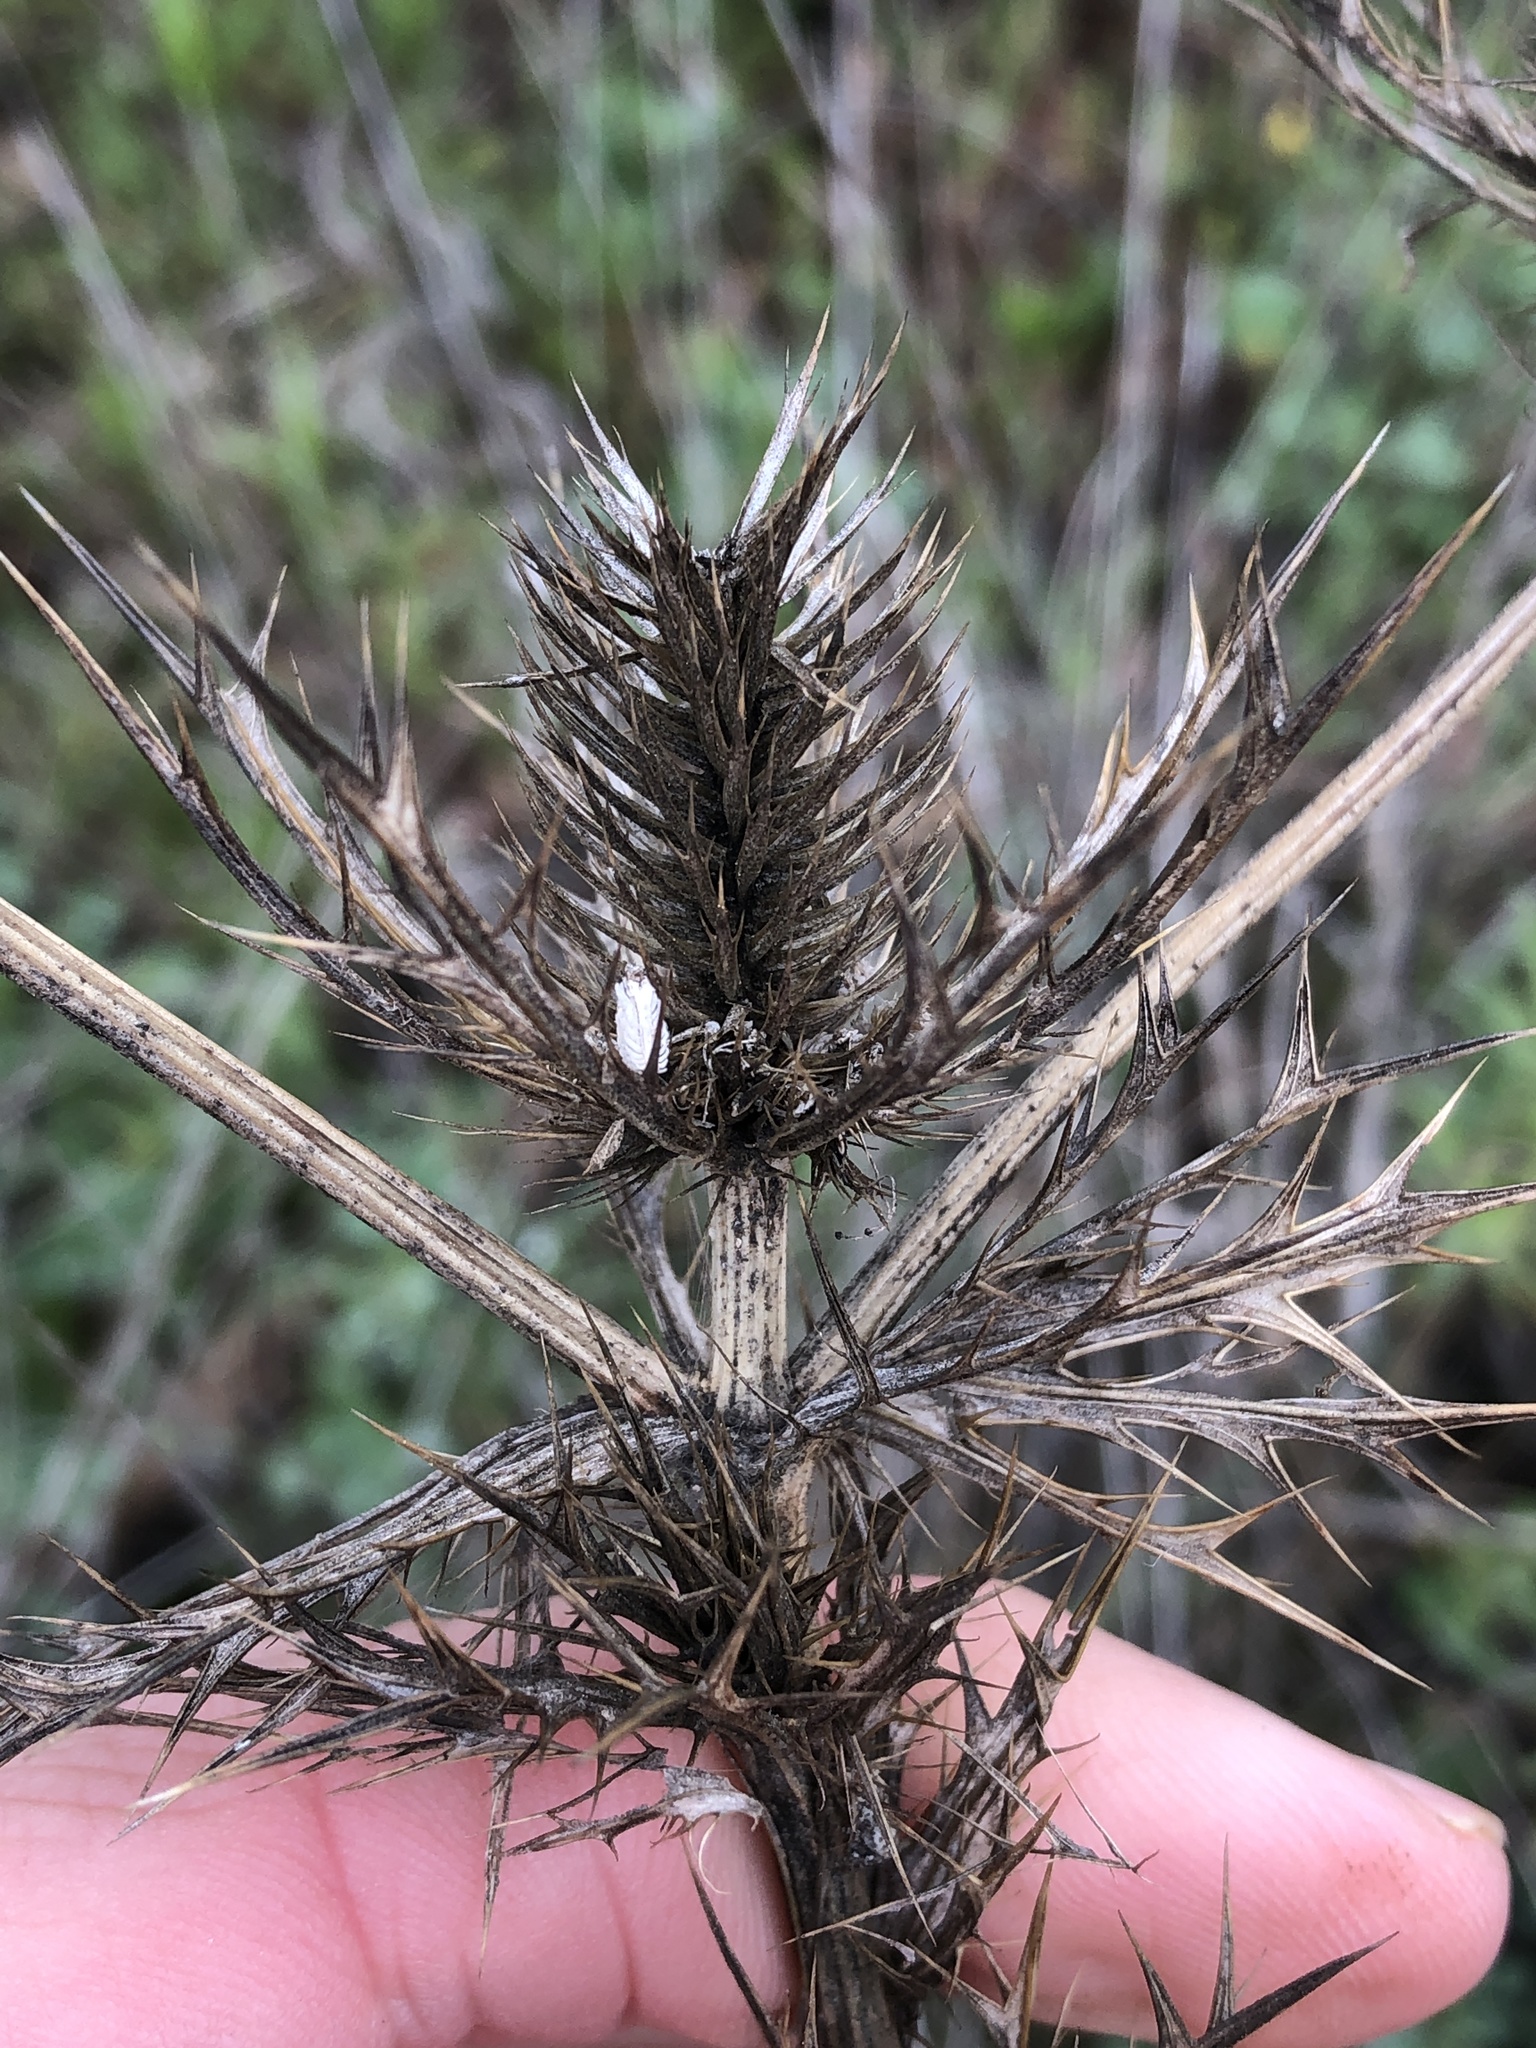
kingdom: Plantae
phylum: Tracheophyta
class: Magnoliopsida
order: Apiales
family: Apiaceae
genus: Eryngium
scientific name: Eryngium leavenworthii
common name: Leavenworth's eryngo
